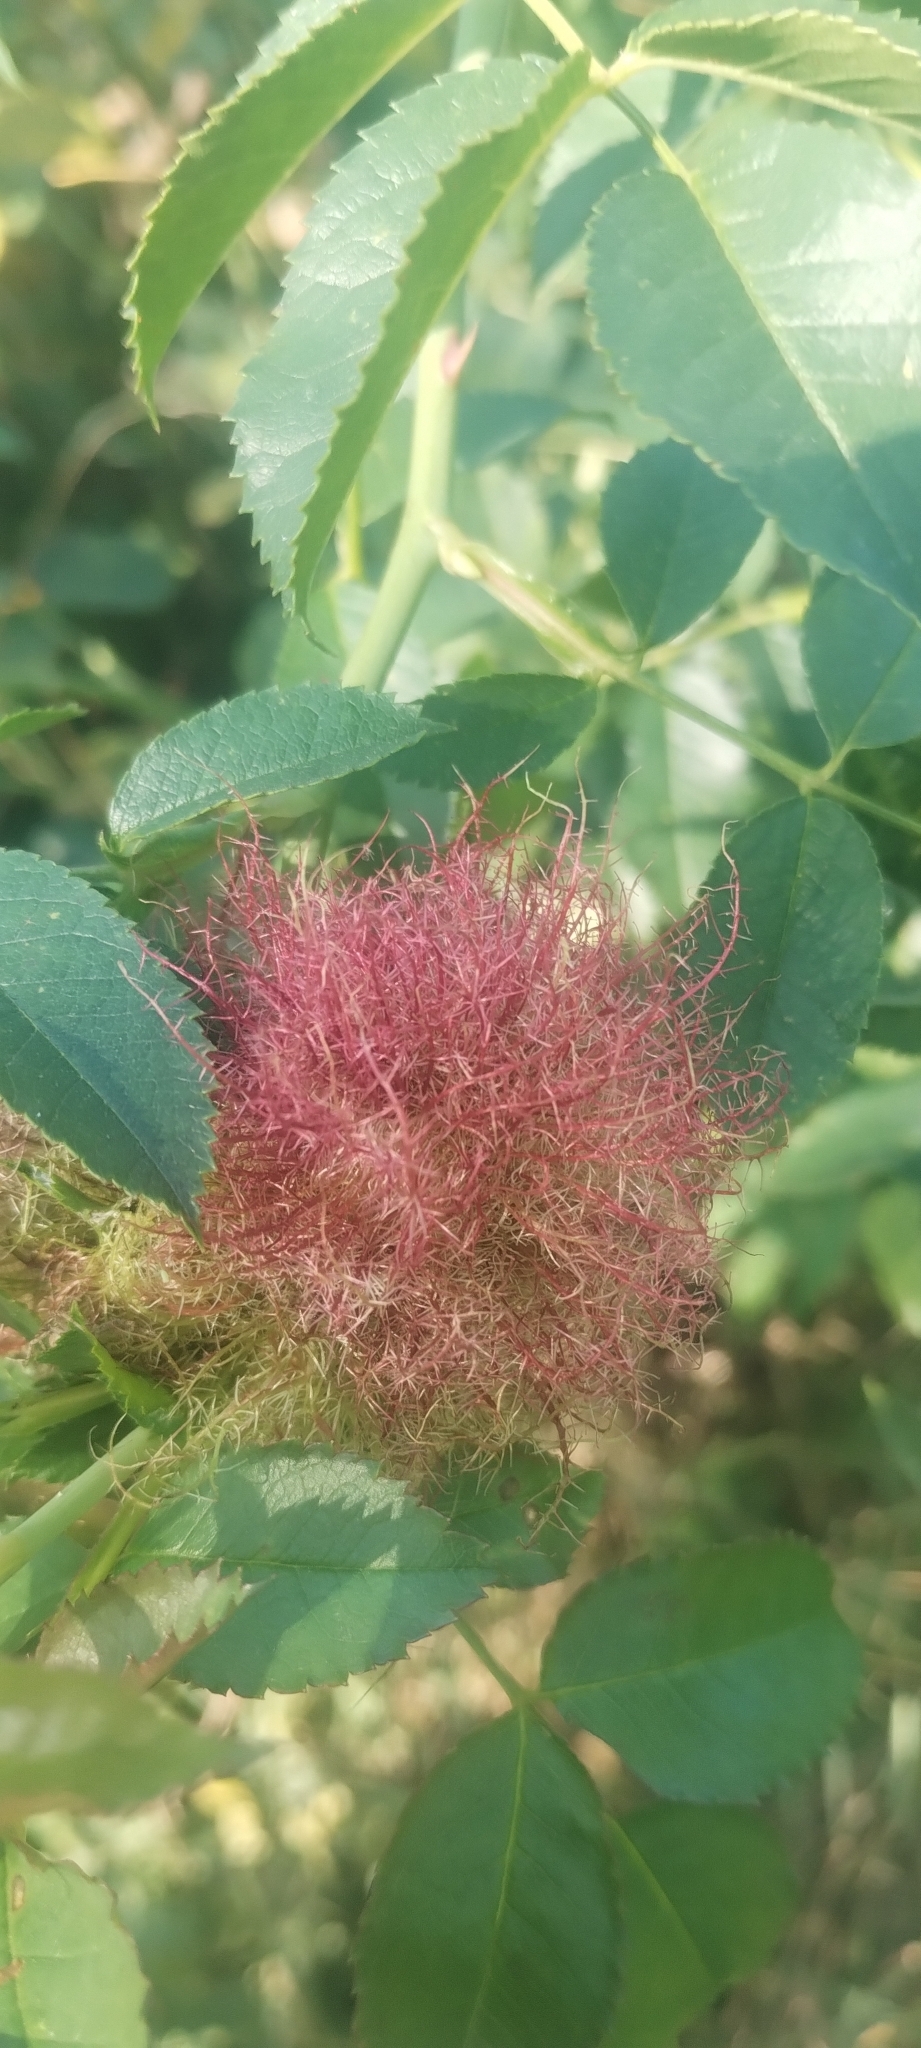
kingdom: Animalia
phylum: Arthropoda
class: Insecta
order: Hymenoptera
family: Cynipidae
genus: Diplolepis
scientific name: Diplolepis rosae
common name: Bedeguar gall
